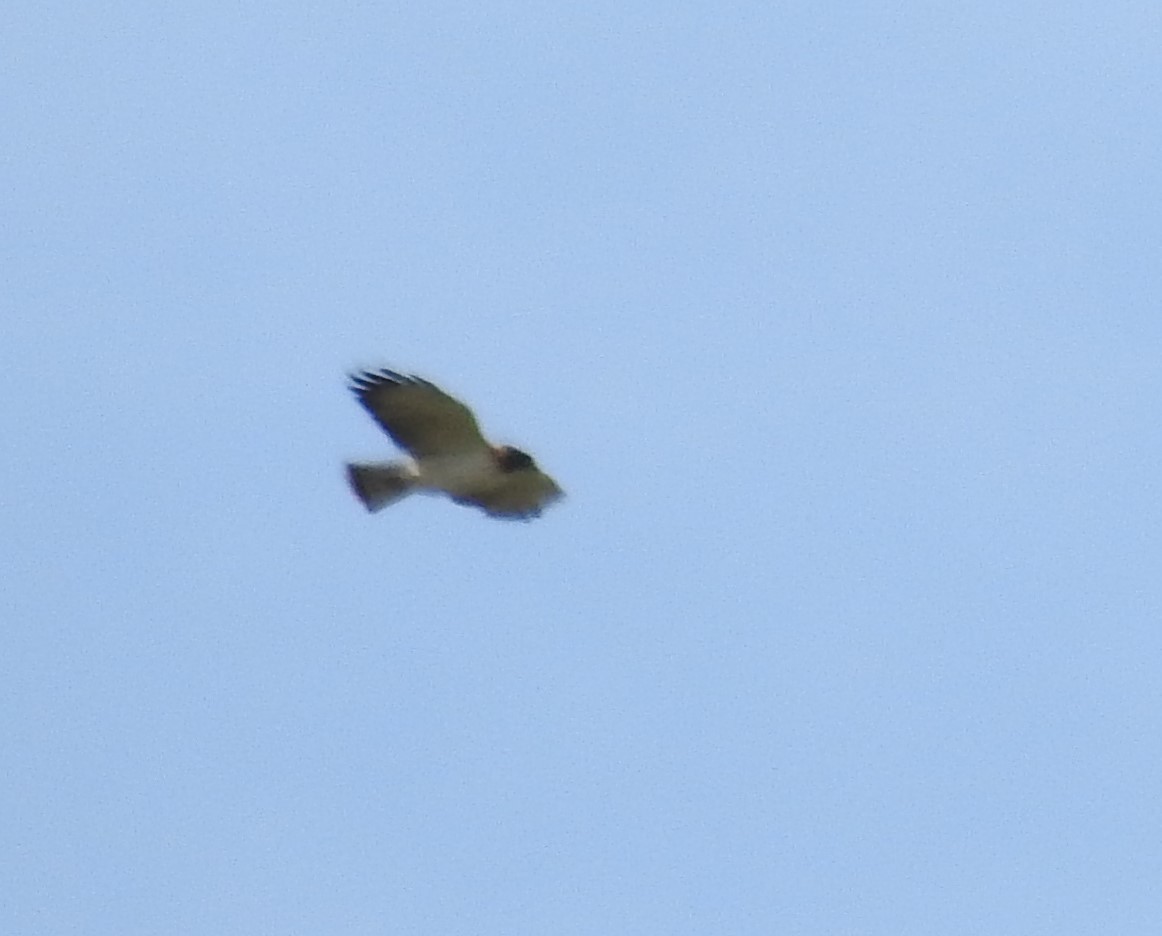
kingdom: Animalia
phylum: Chordata
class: Aves
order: Accipitriformes
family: Accipitridae
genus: Buteo
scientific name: Buteo brachyurus
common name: Short-tailed hawk
